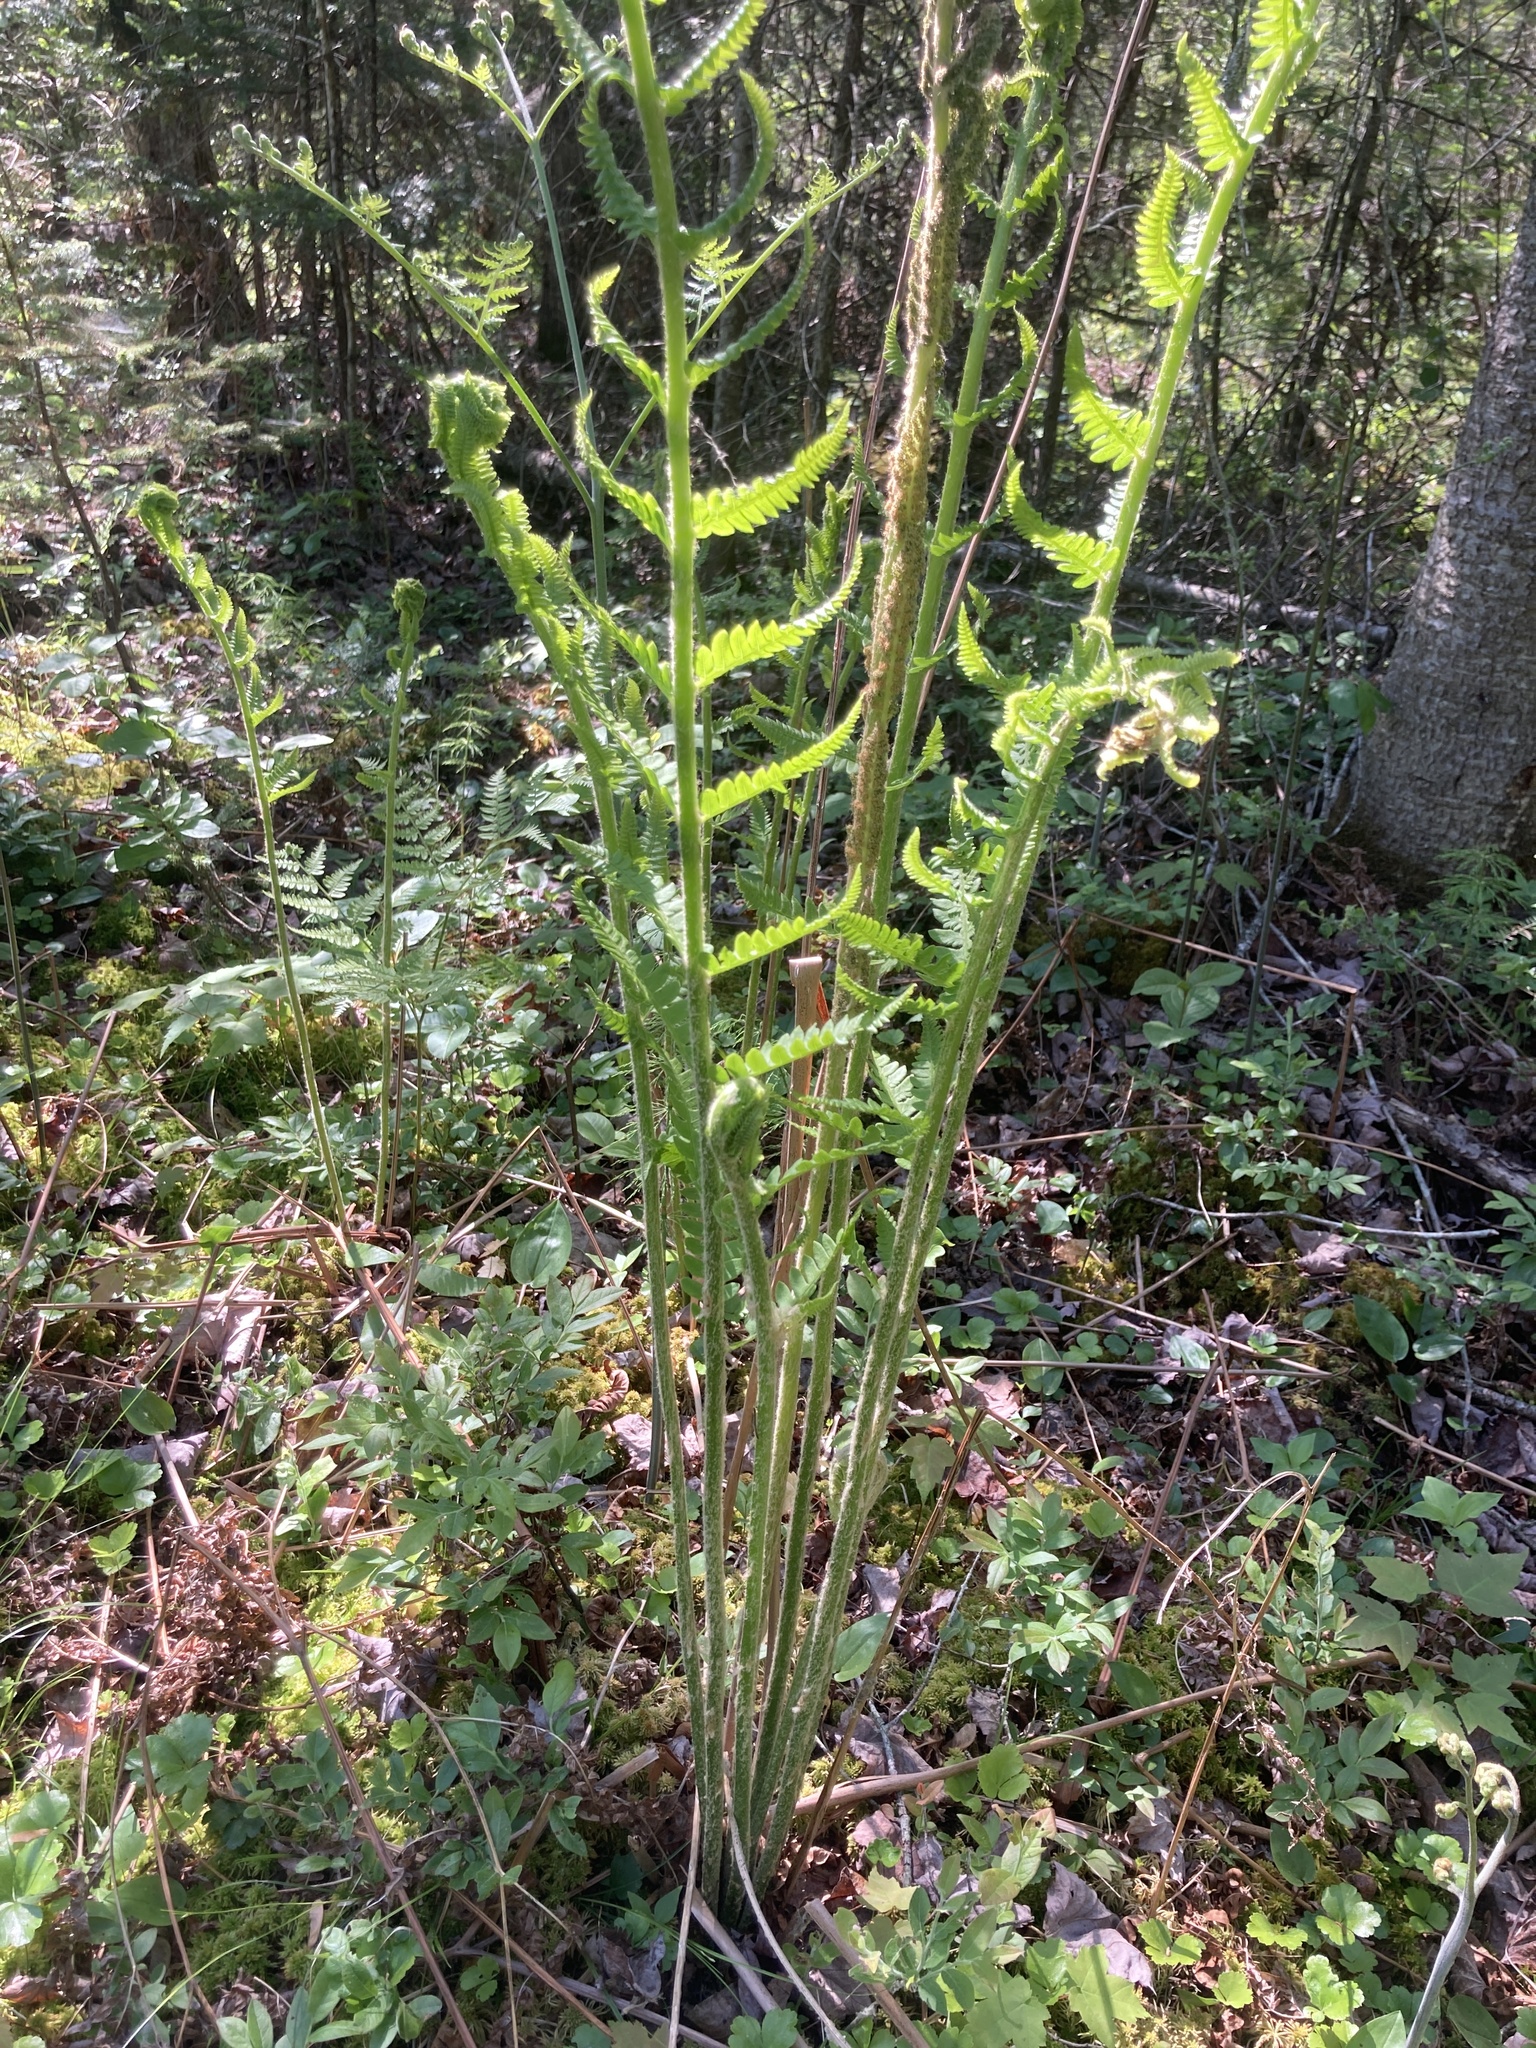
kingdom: Plantae
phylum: Tracheophyta
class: Polypodiopsida
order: Osmundales
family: Osmundaceae
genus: Osmundastrum
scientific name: Osmundastrum cinnamomeum
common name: Cinnamon fern
